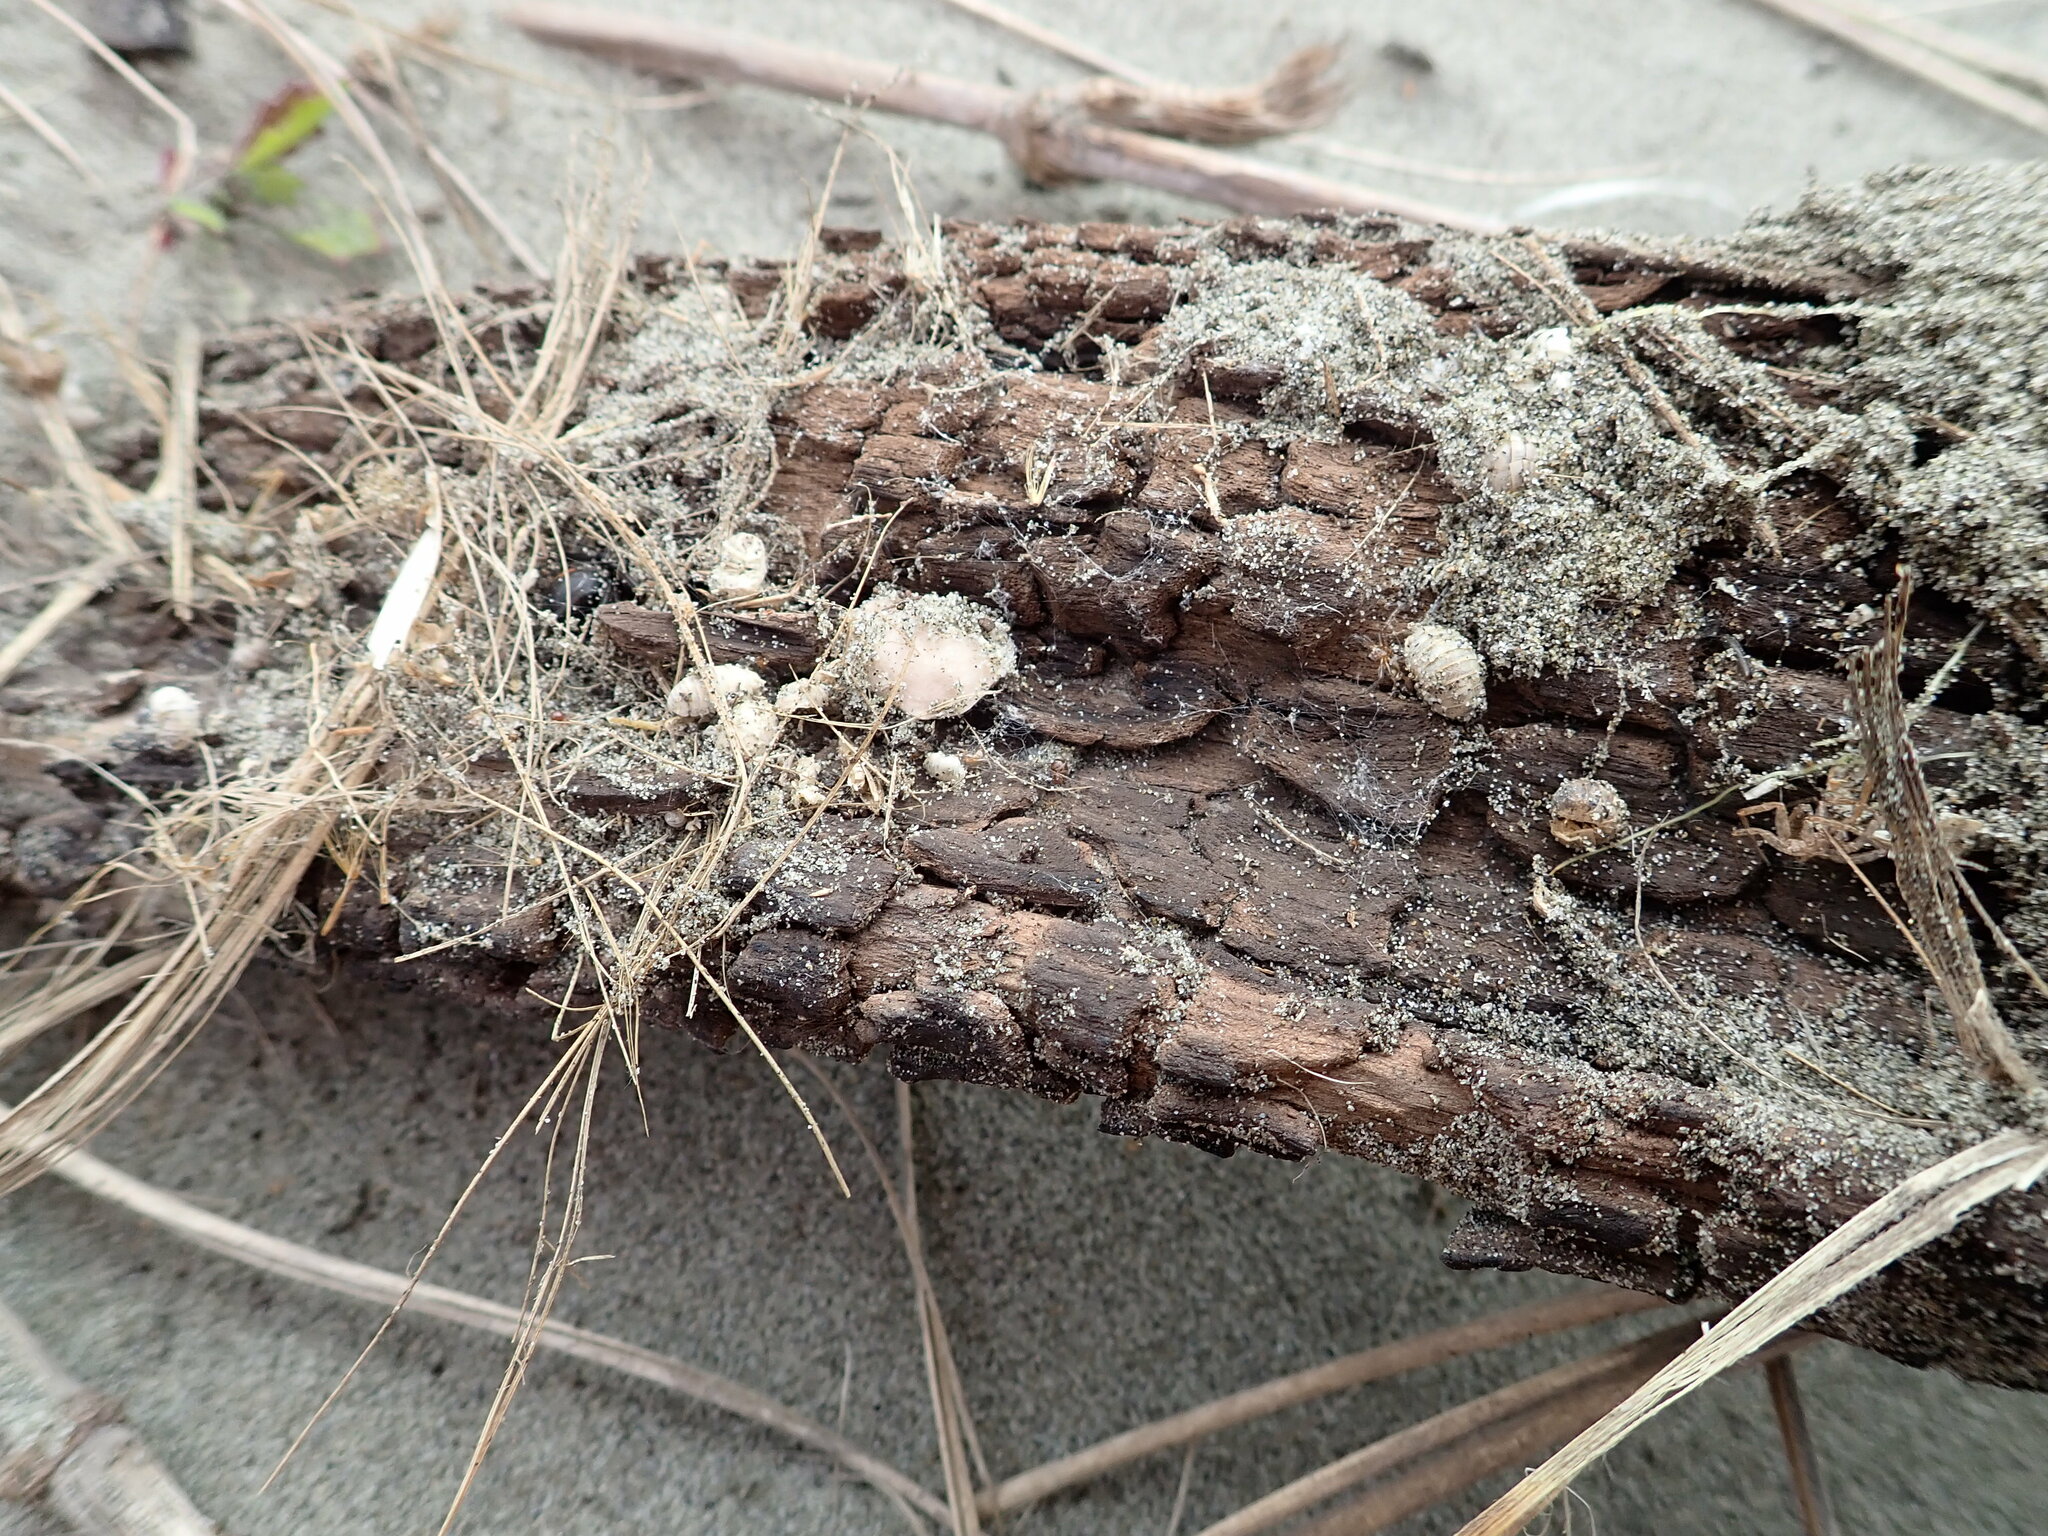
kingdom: Animalia
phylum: Arthropoda
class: Arachnida
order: Araneae
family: Theridiidae
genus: Latrodectus
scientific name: Latrodectus katipo
